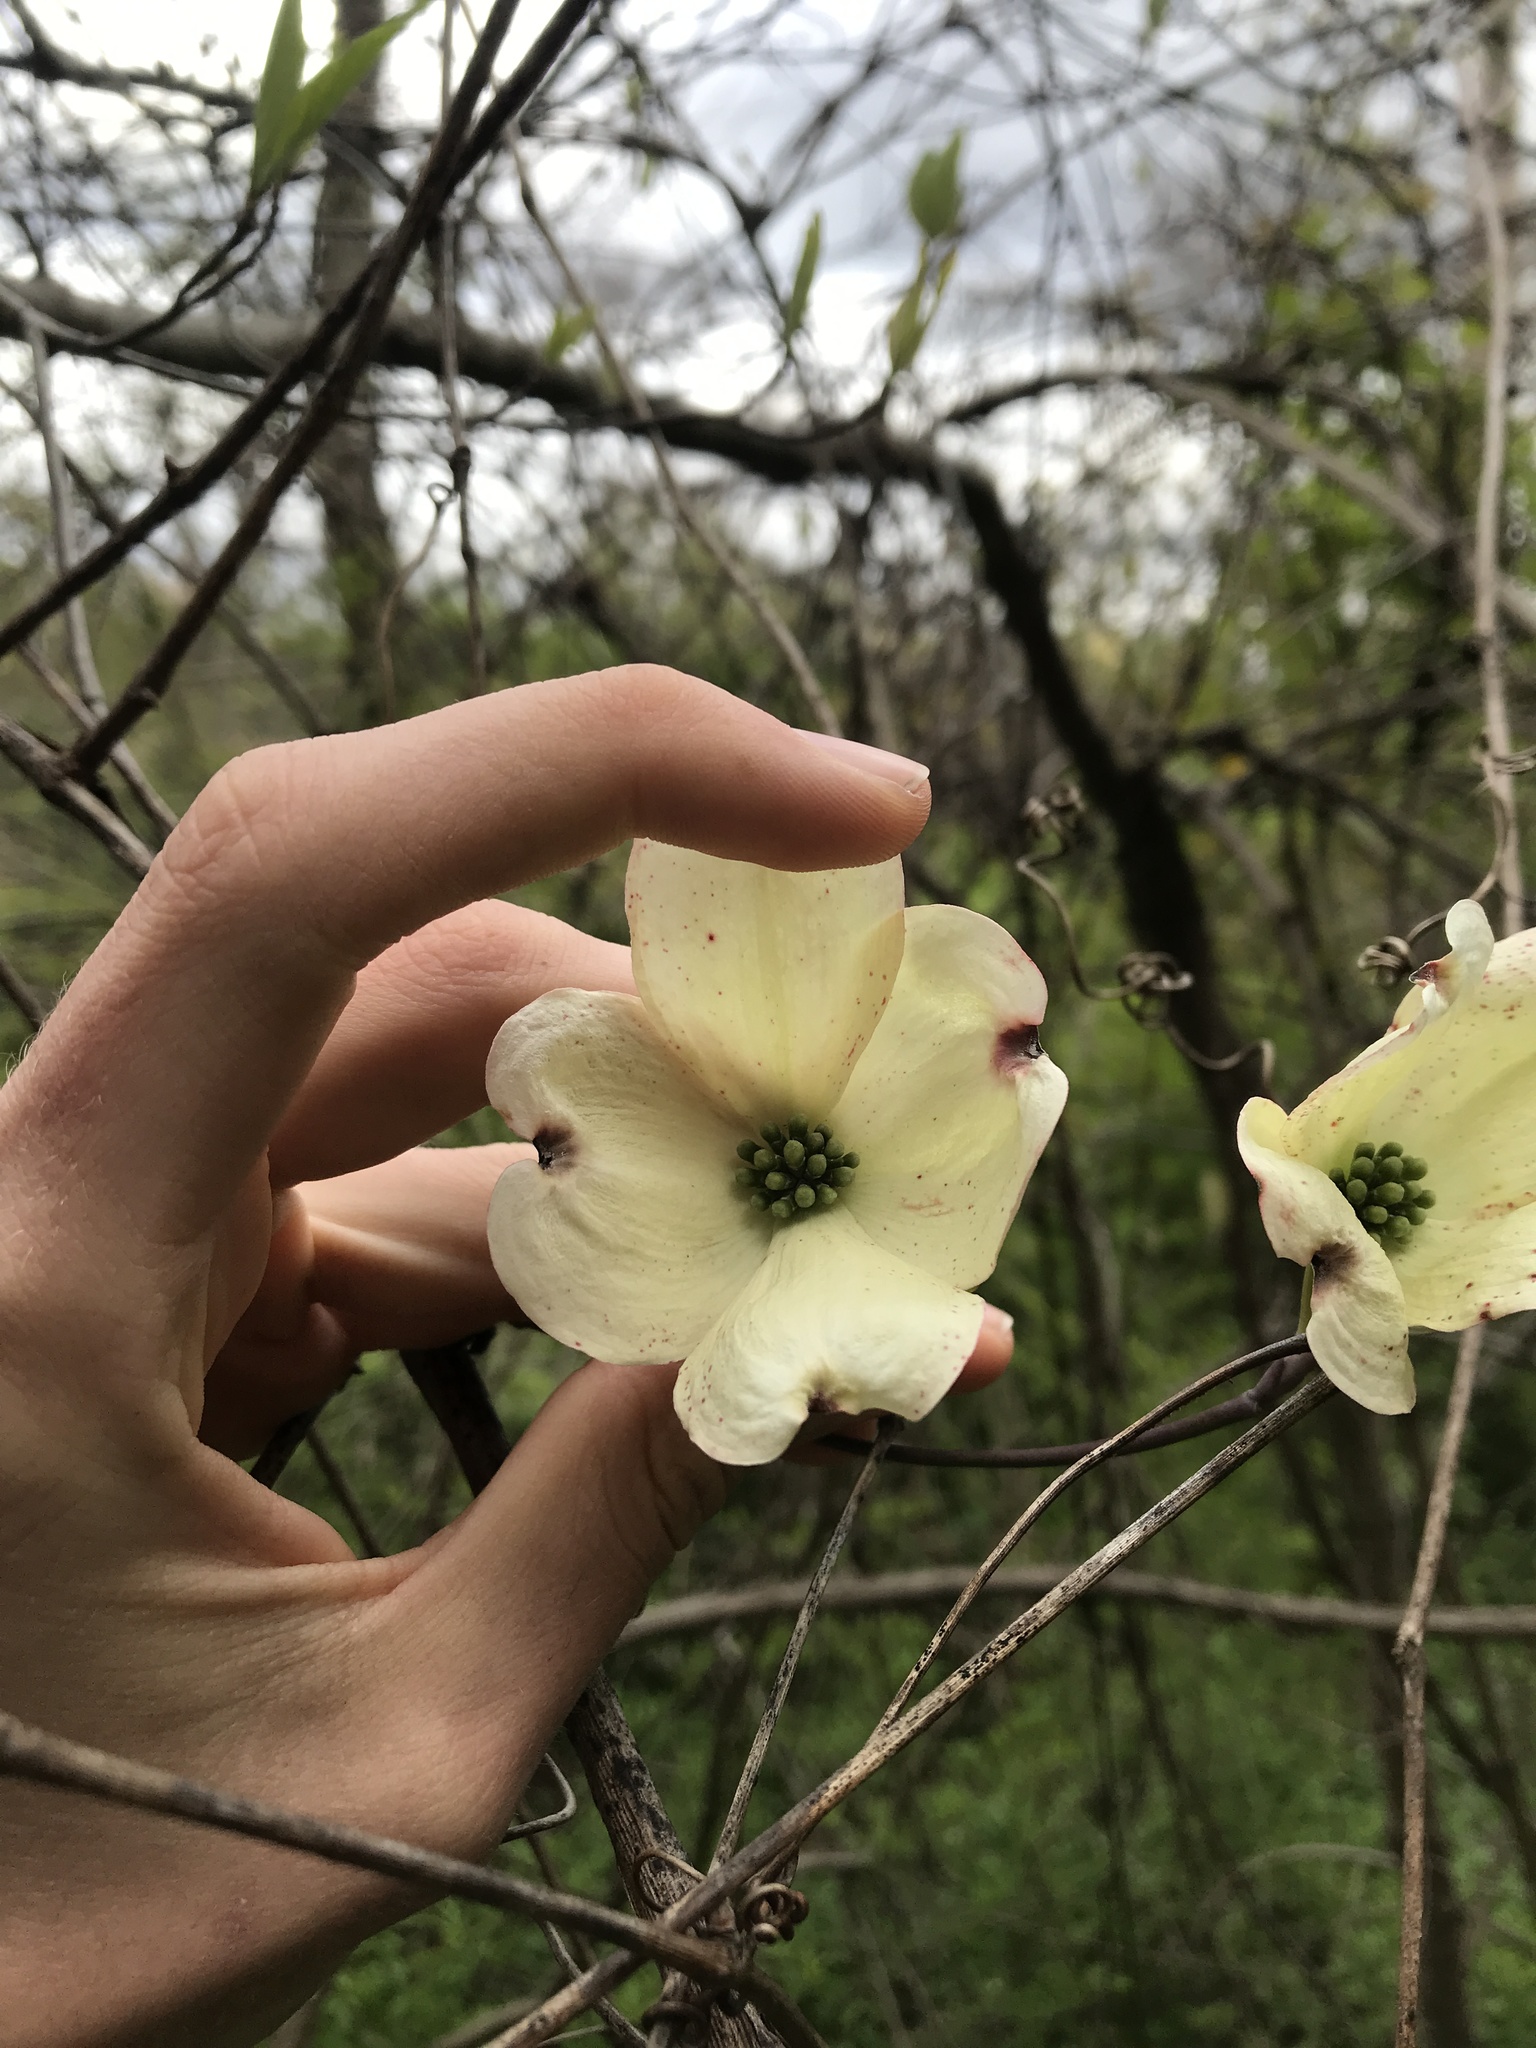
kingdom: Plantae
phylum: Tracheophyta
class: Magnoliopsida
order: Cornales
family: Cornaceae
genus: Cornus
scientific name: Cornus florida
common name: Flowering dogwood
